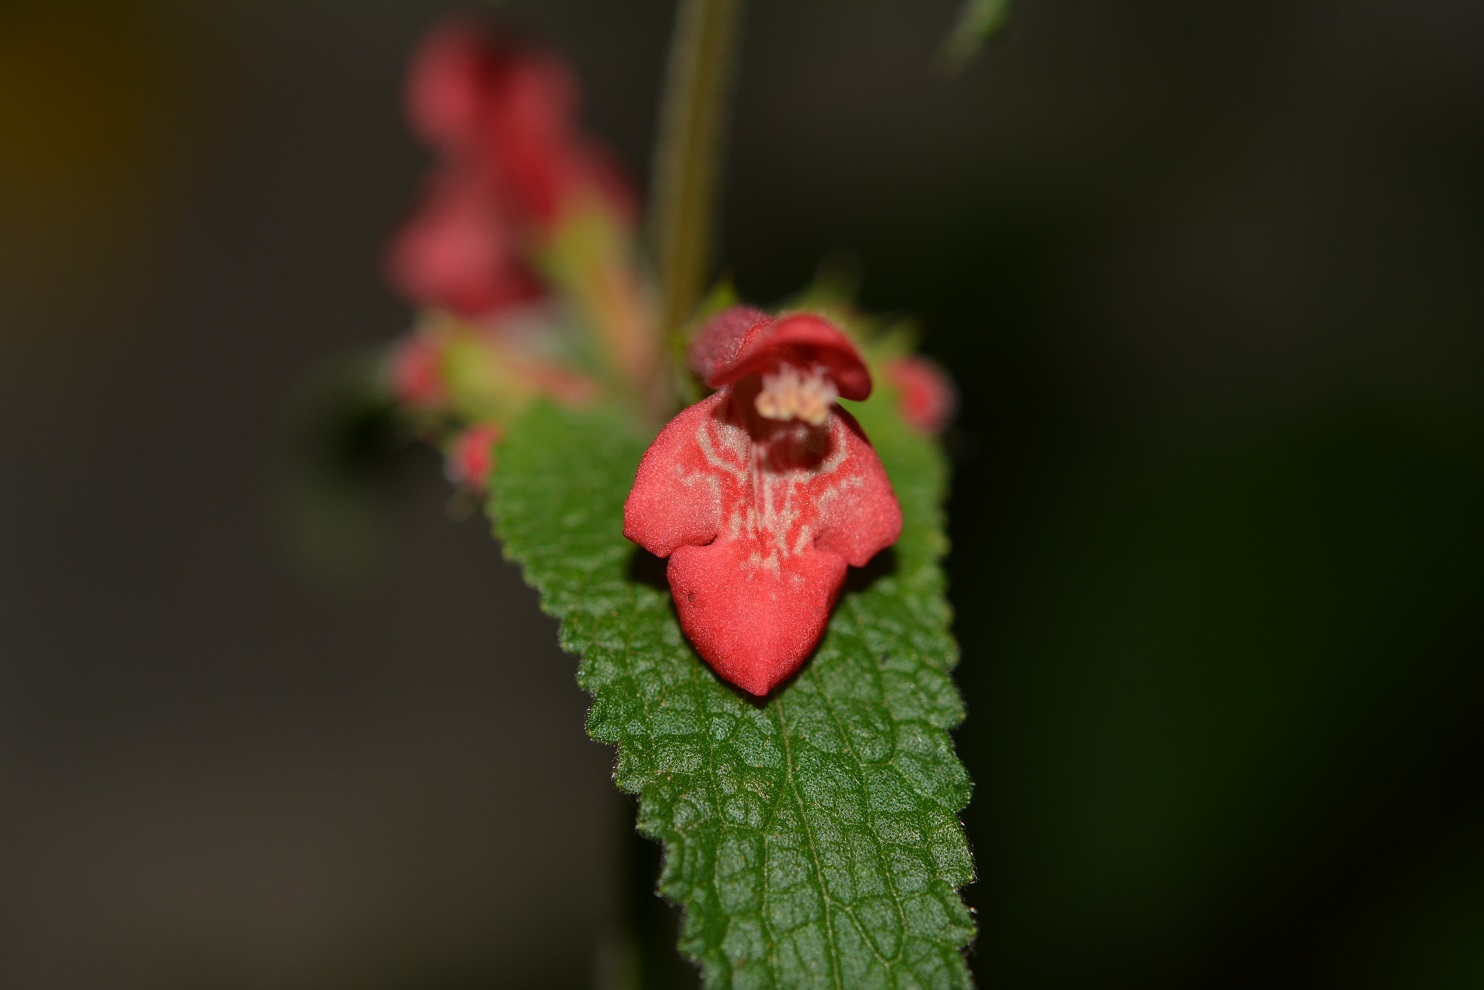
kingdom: Plantae
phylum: Tracheophyta
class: Magnoliopsida
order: Lamiales
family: Lamiaceae
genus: Stachys
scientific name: Stachys coccinea
